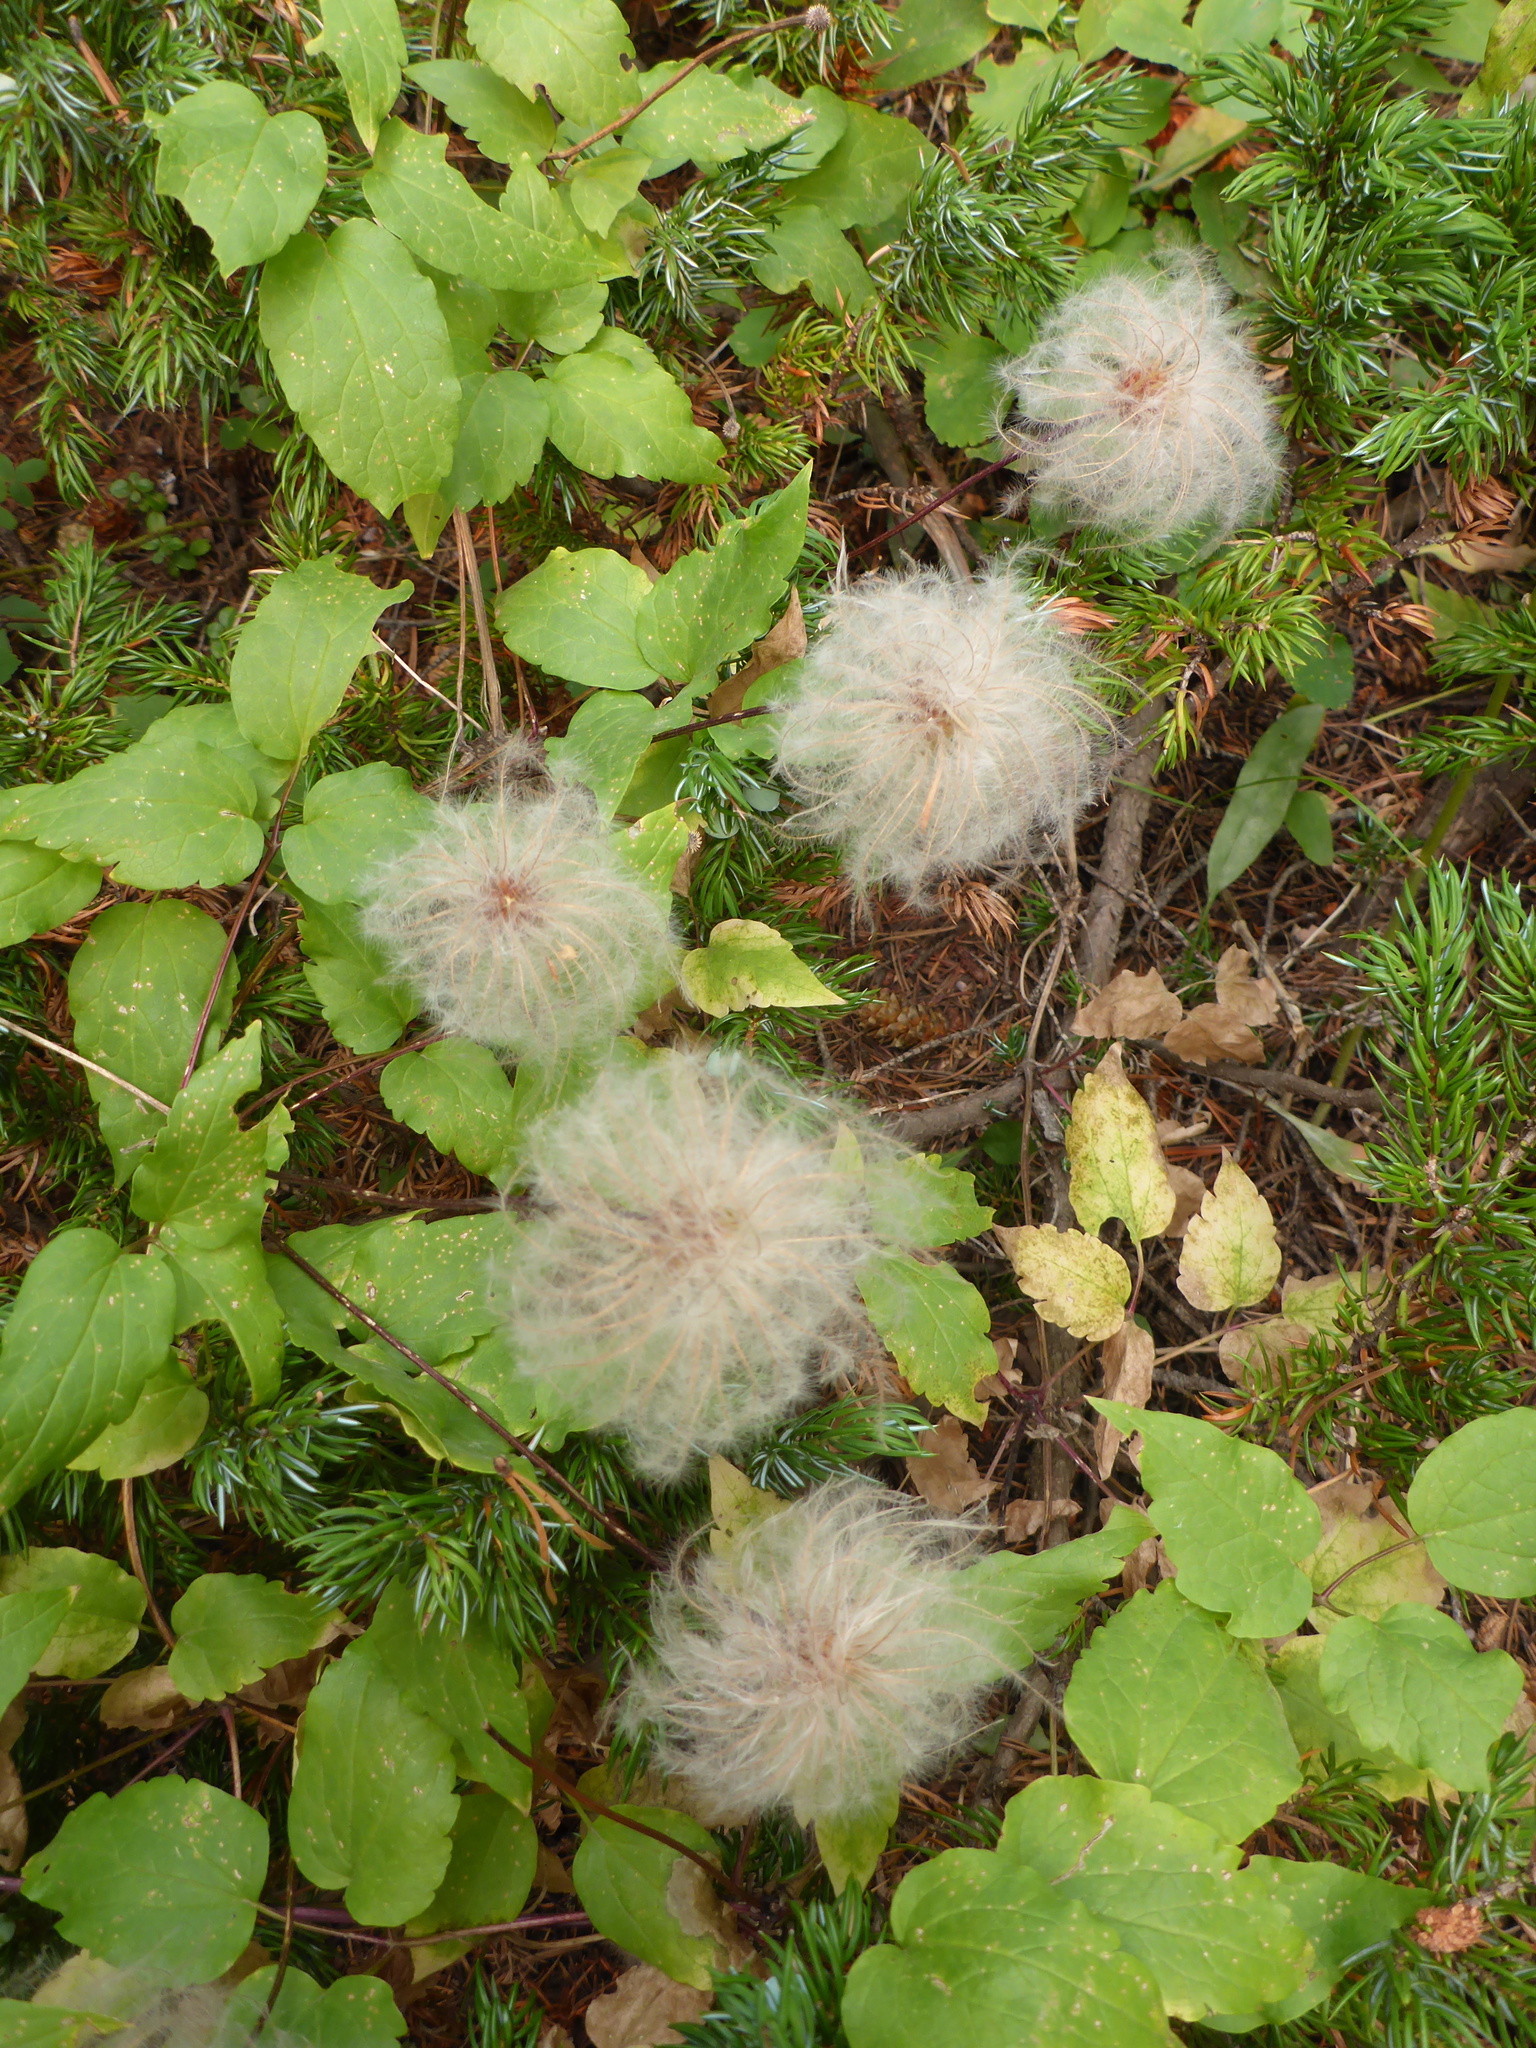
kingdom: Plantae
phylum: Tracheophyta
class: Magnoliopsida
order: Ranunculales
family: Ranunculaceae
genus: Clematis
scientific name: Clematis occidentalis
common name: Purple clematis
